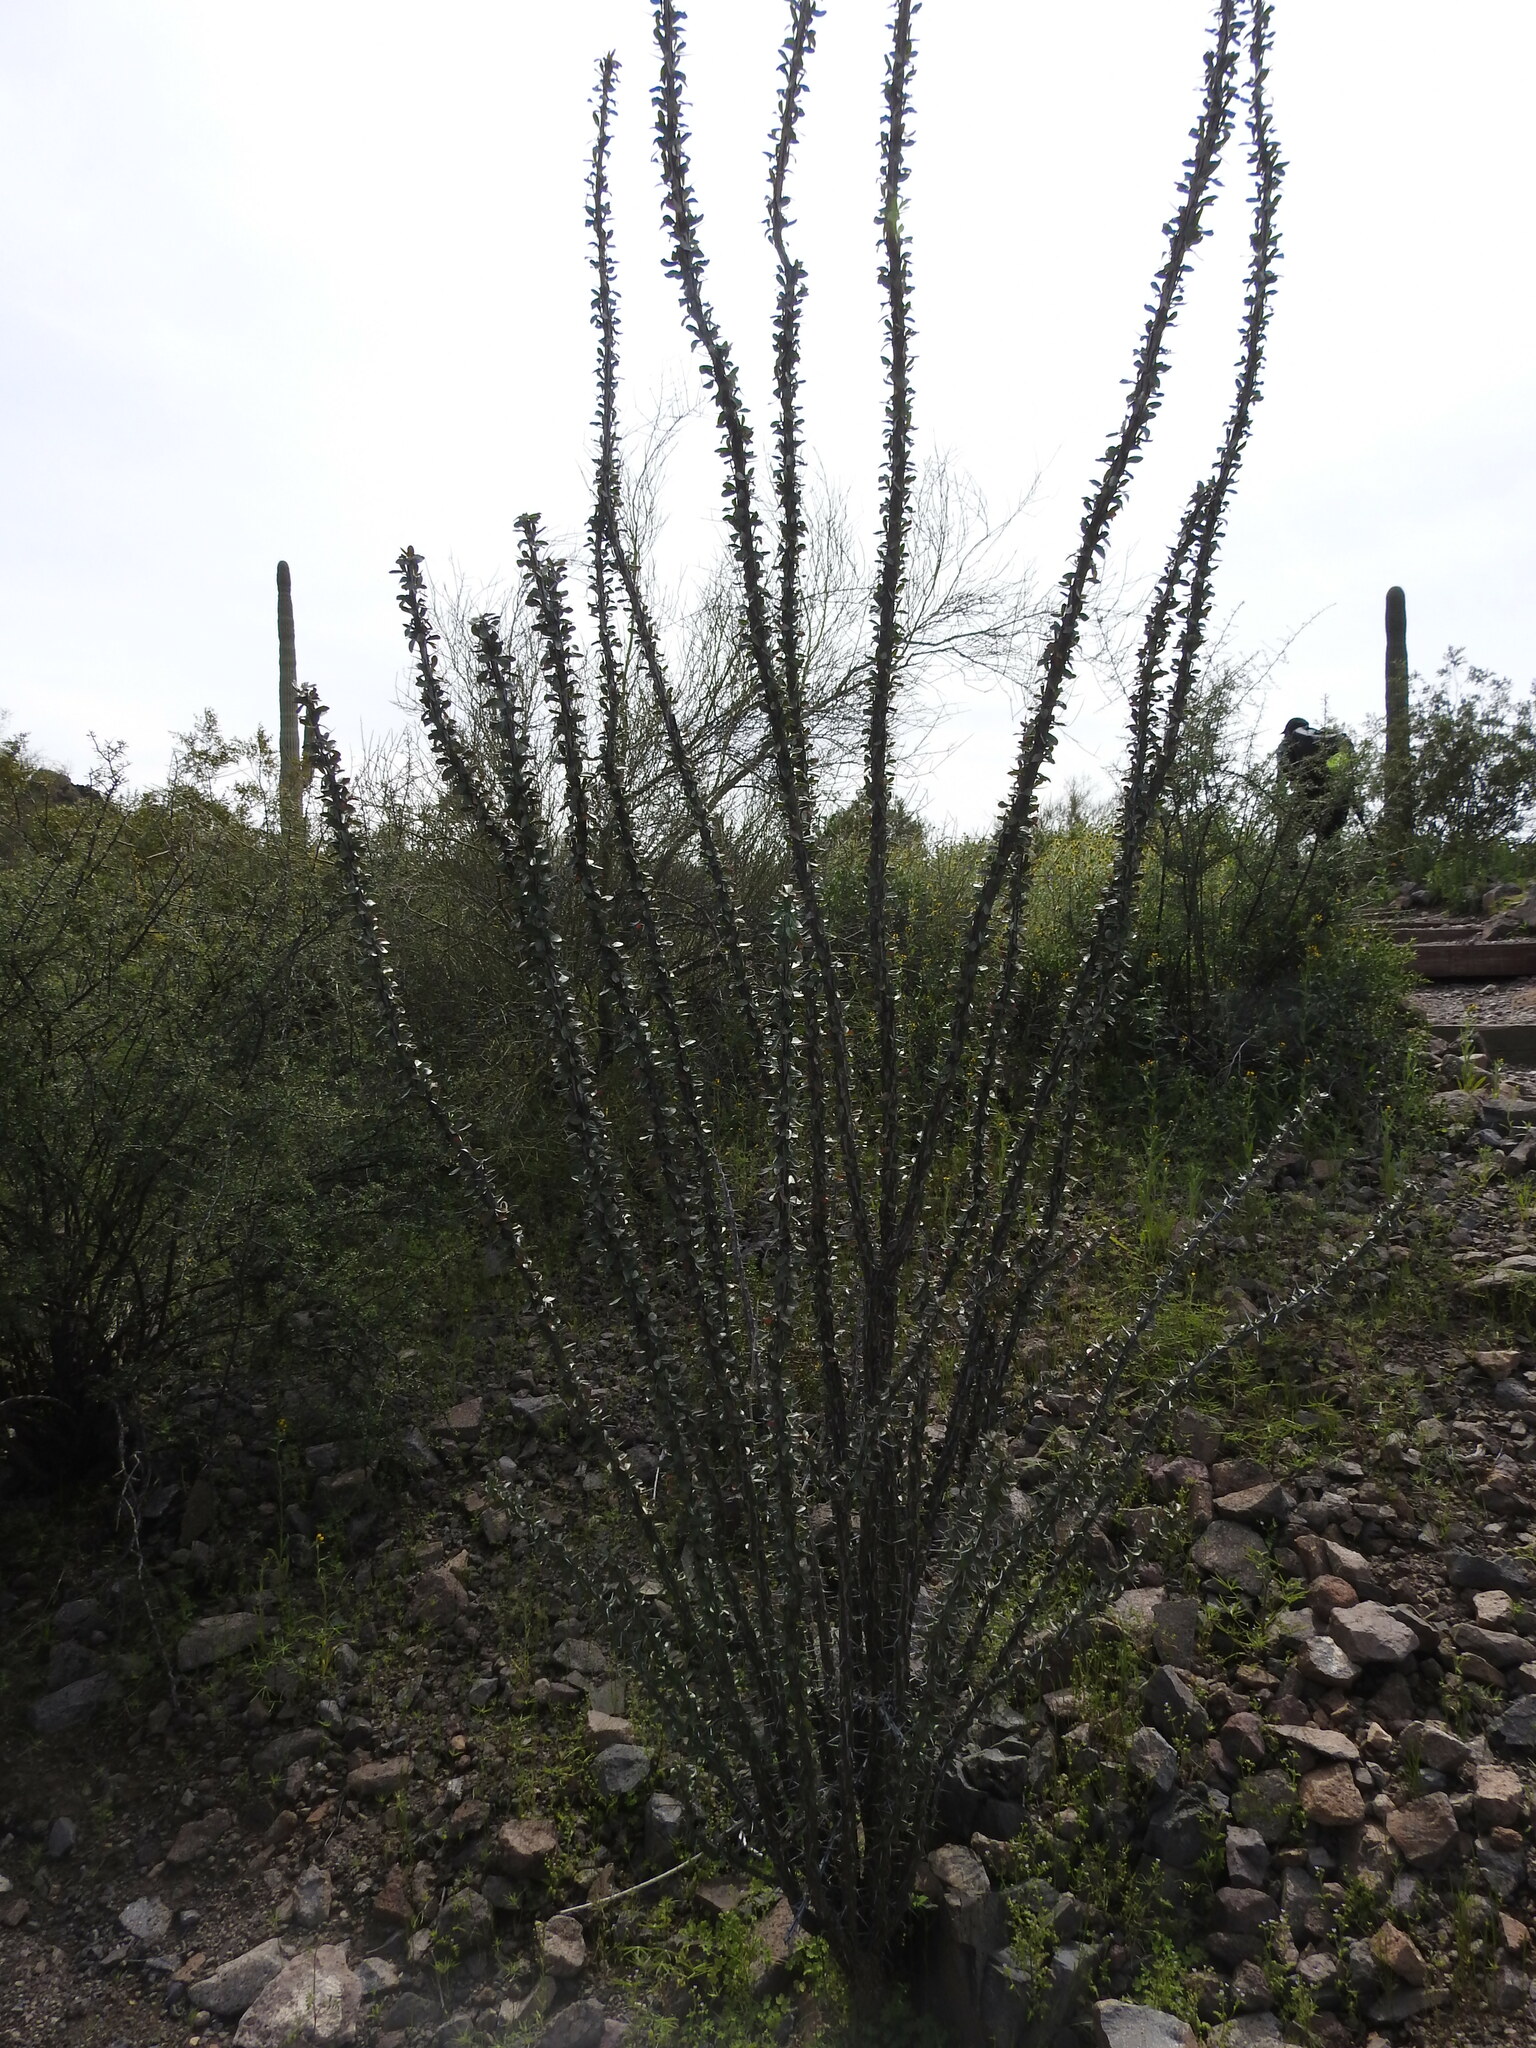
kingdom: Plantae
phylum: Tracheophyta
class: Magnoliopsida
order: Ericales
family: Fouquieriaceae
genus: Fouquieria
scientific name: Fouquieria splendens
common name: Vine-cactus
